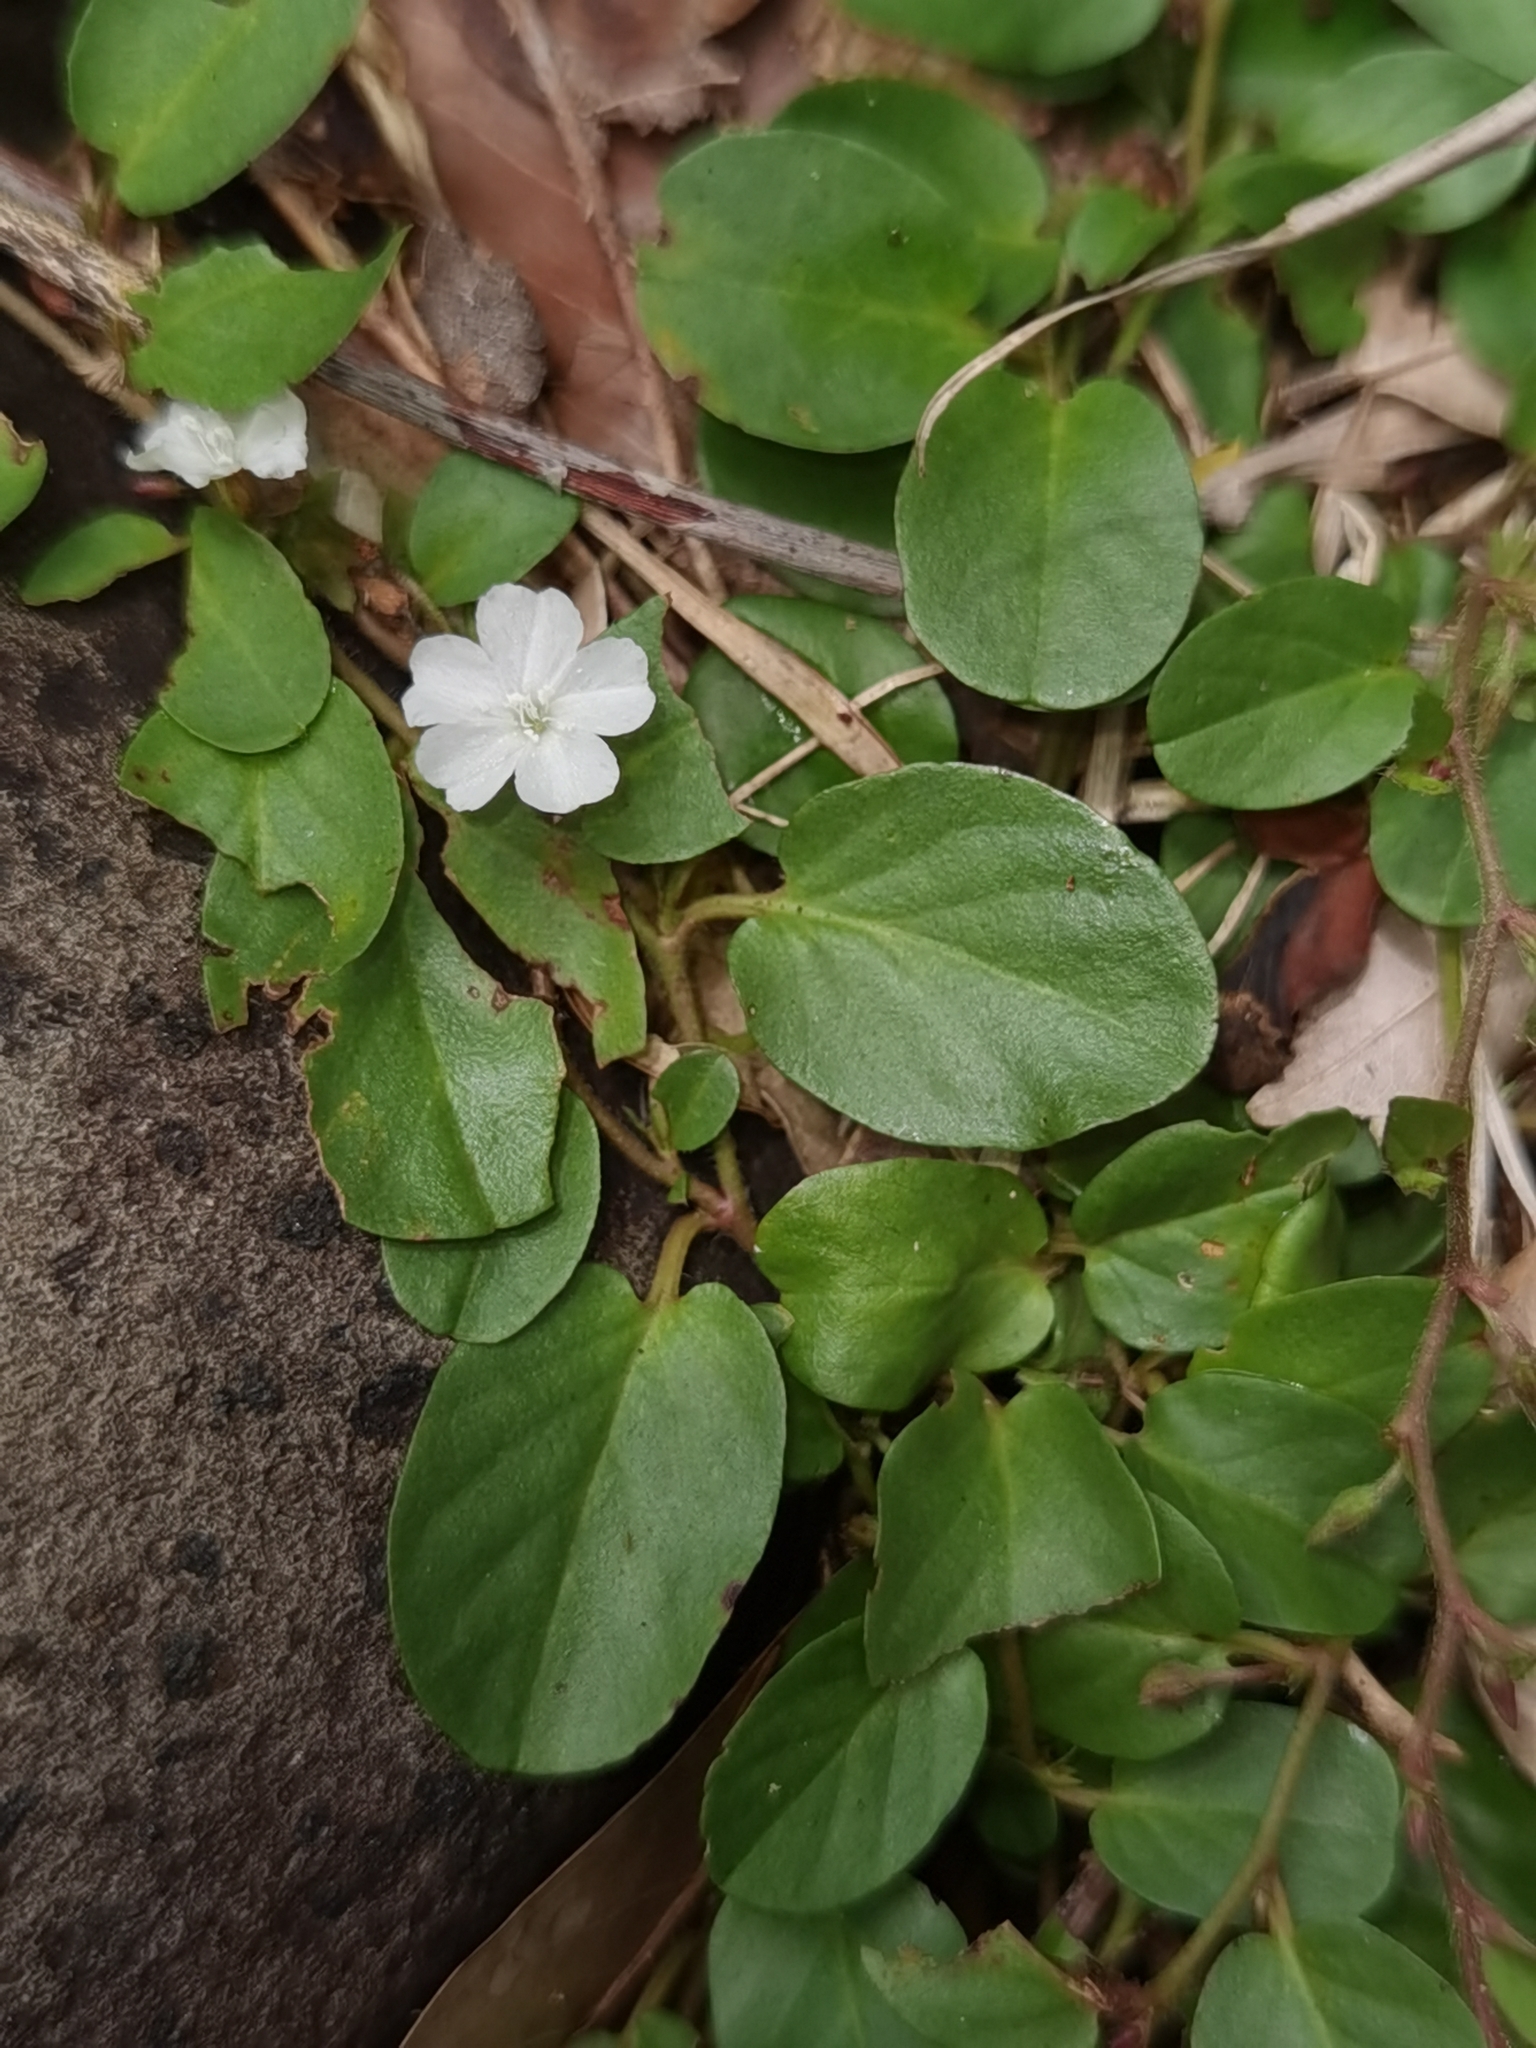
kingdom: Plantae
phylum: Tracheophyta
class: Magnoliopsida
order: Solanales
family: Convolvulaceae
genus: Evolvulus
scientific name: Evolvulus nummularius
